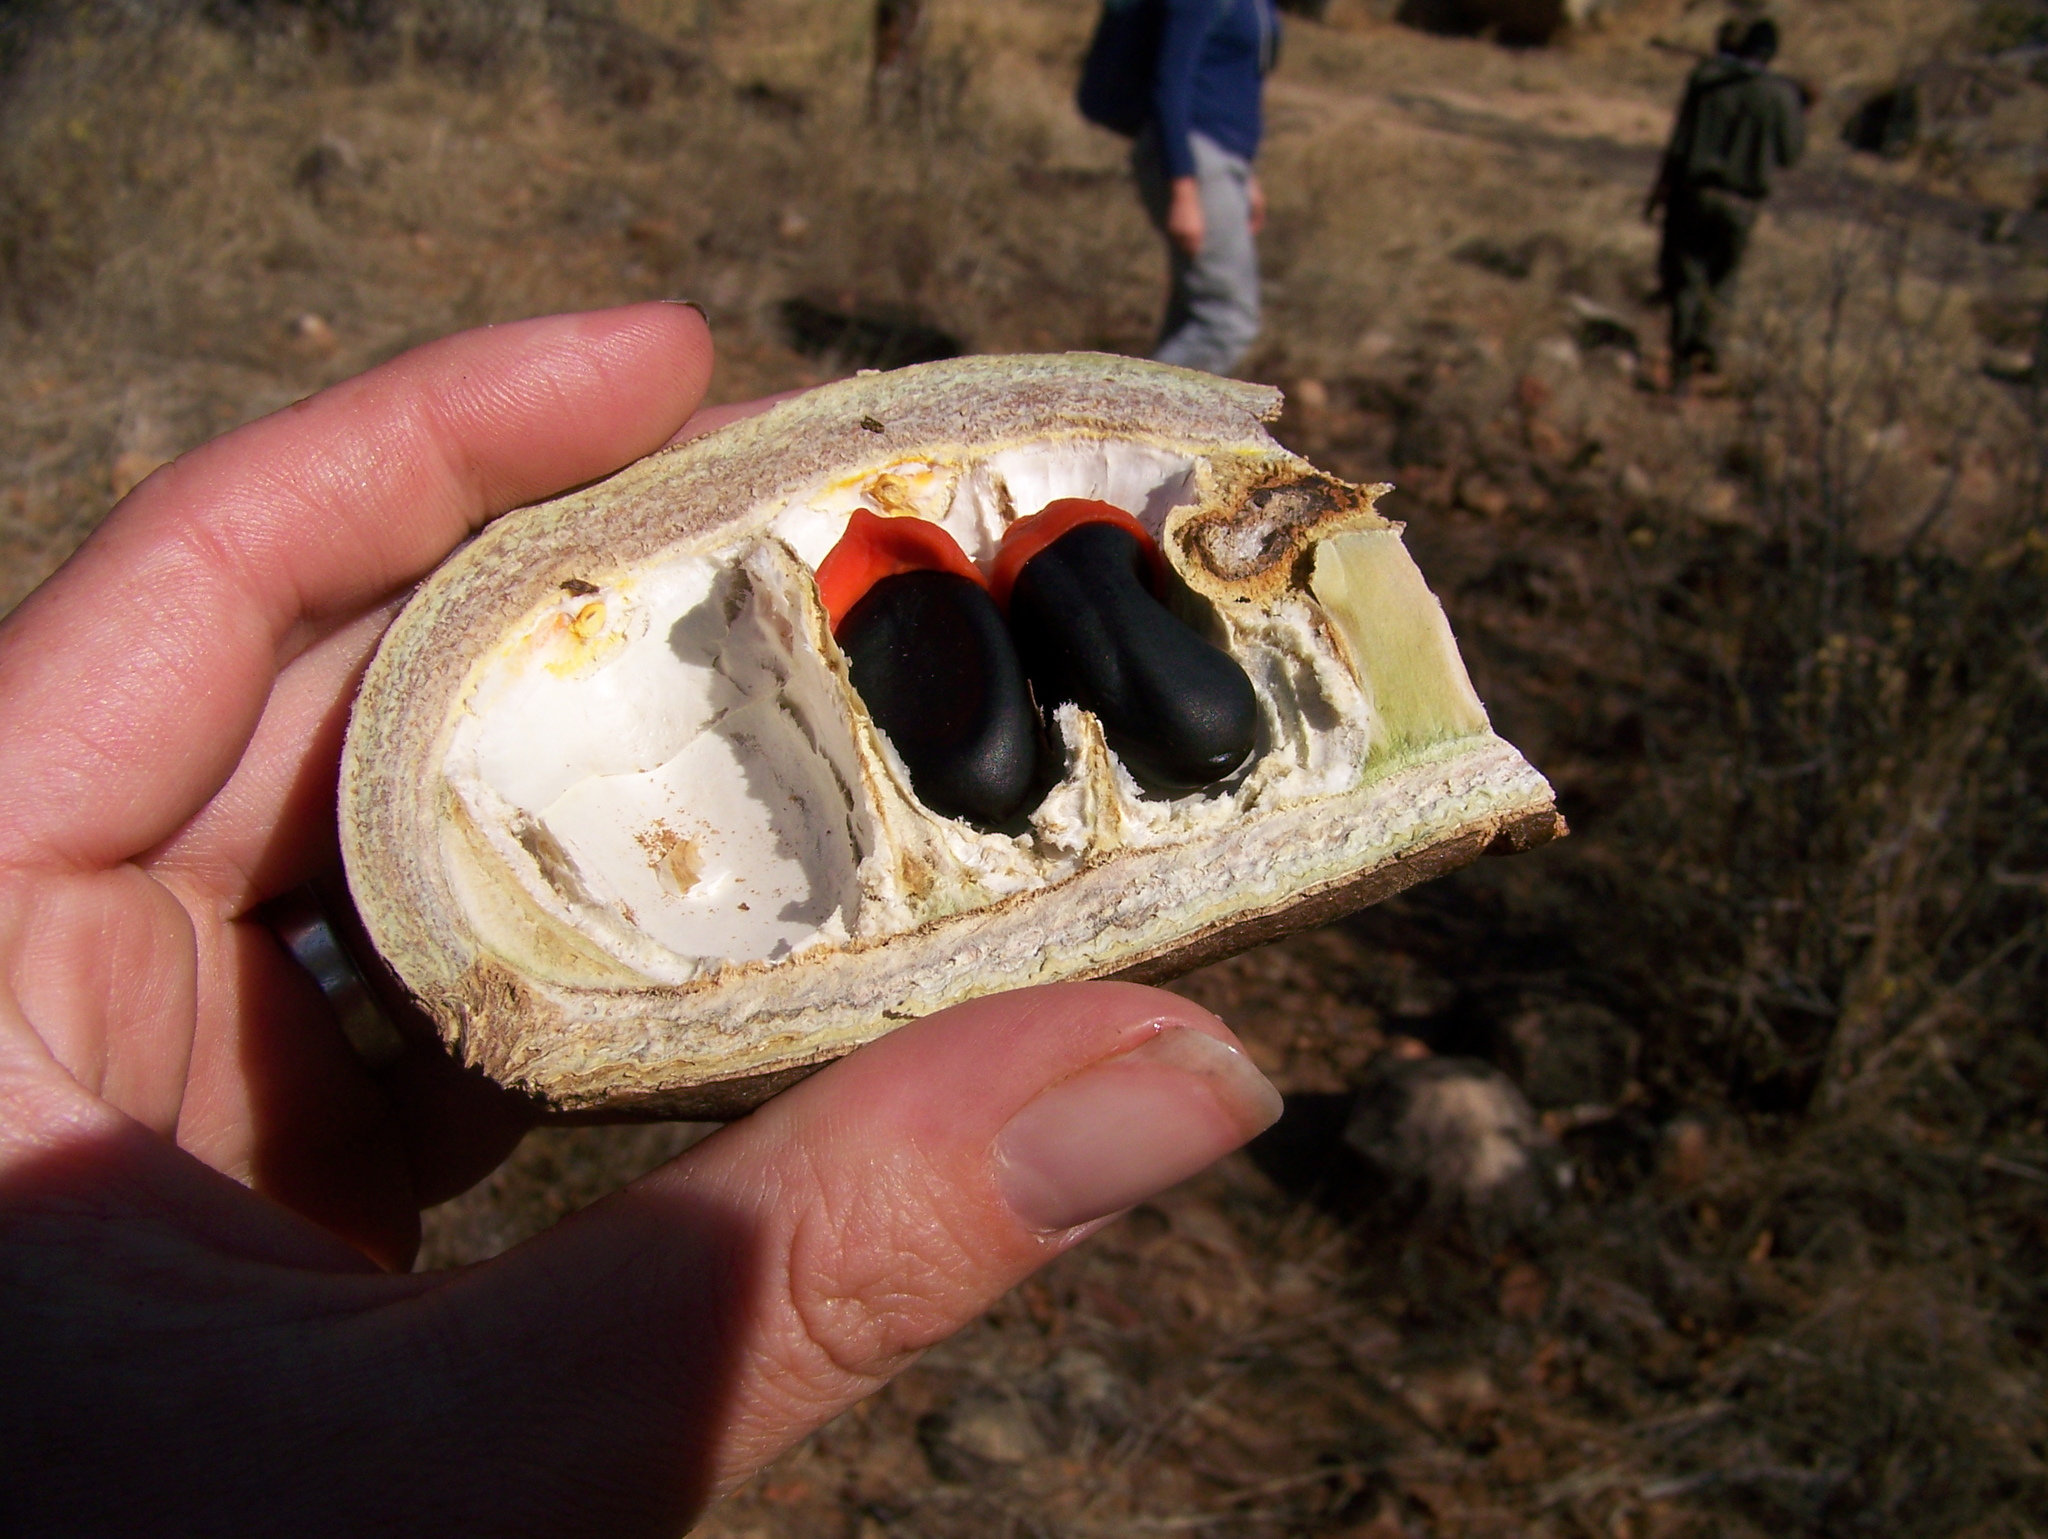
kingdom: Plantae
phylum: Tracheophyta
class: Magnoliopsida
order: Fabales
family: Fabaceae
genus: Afzelia
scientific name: Afzelia quanzensis
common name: Pod mahogany
